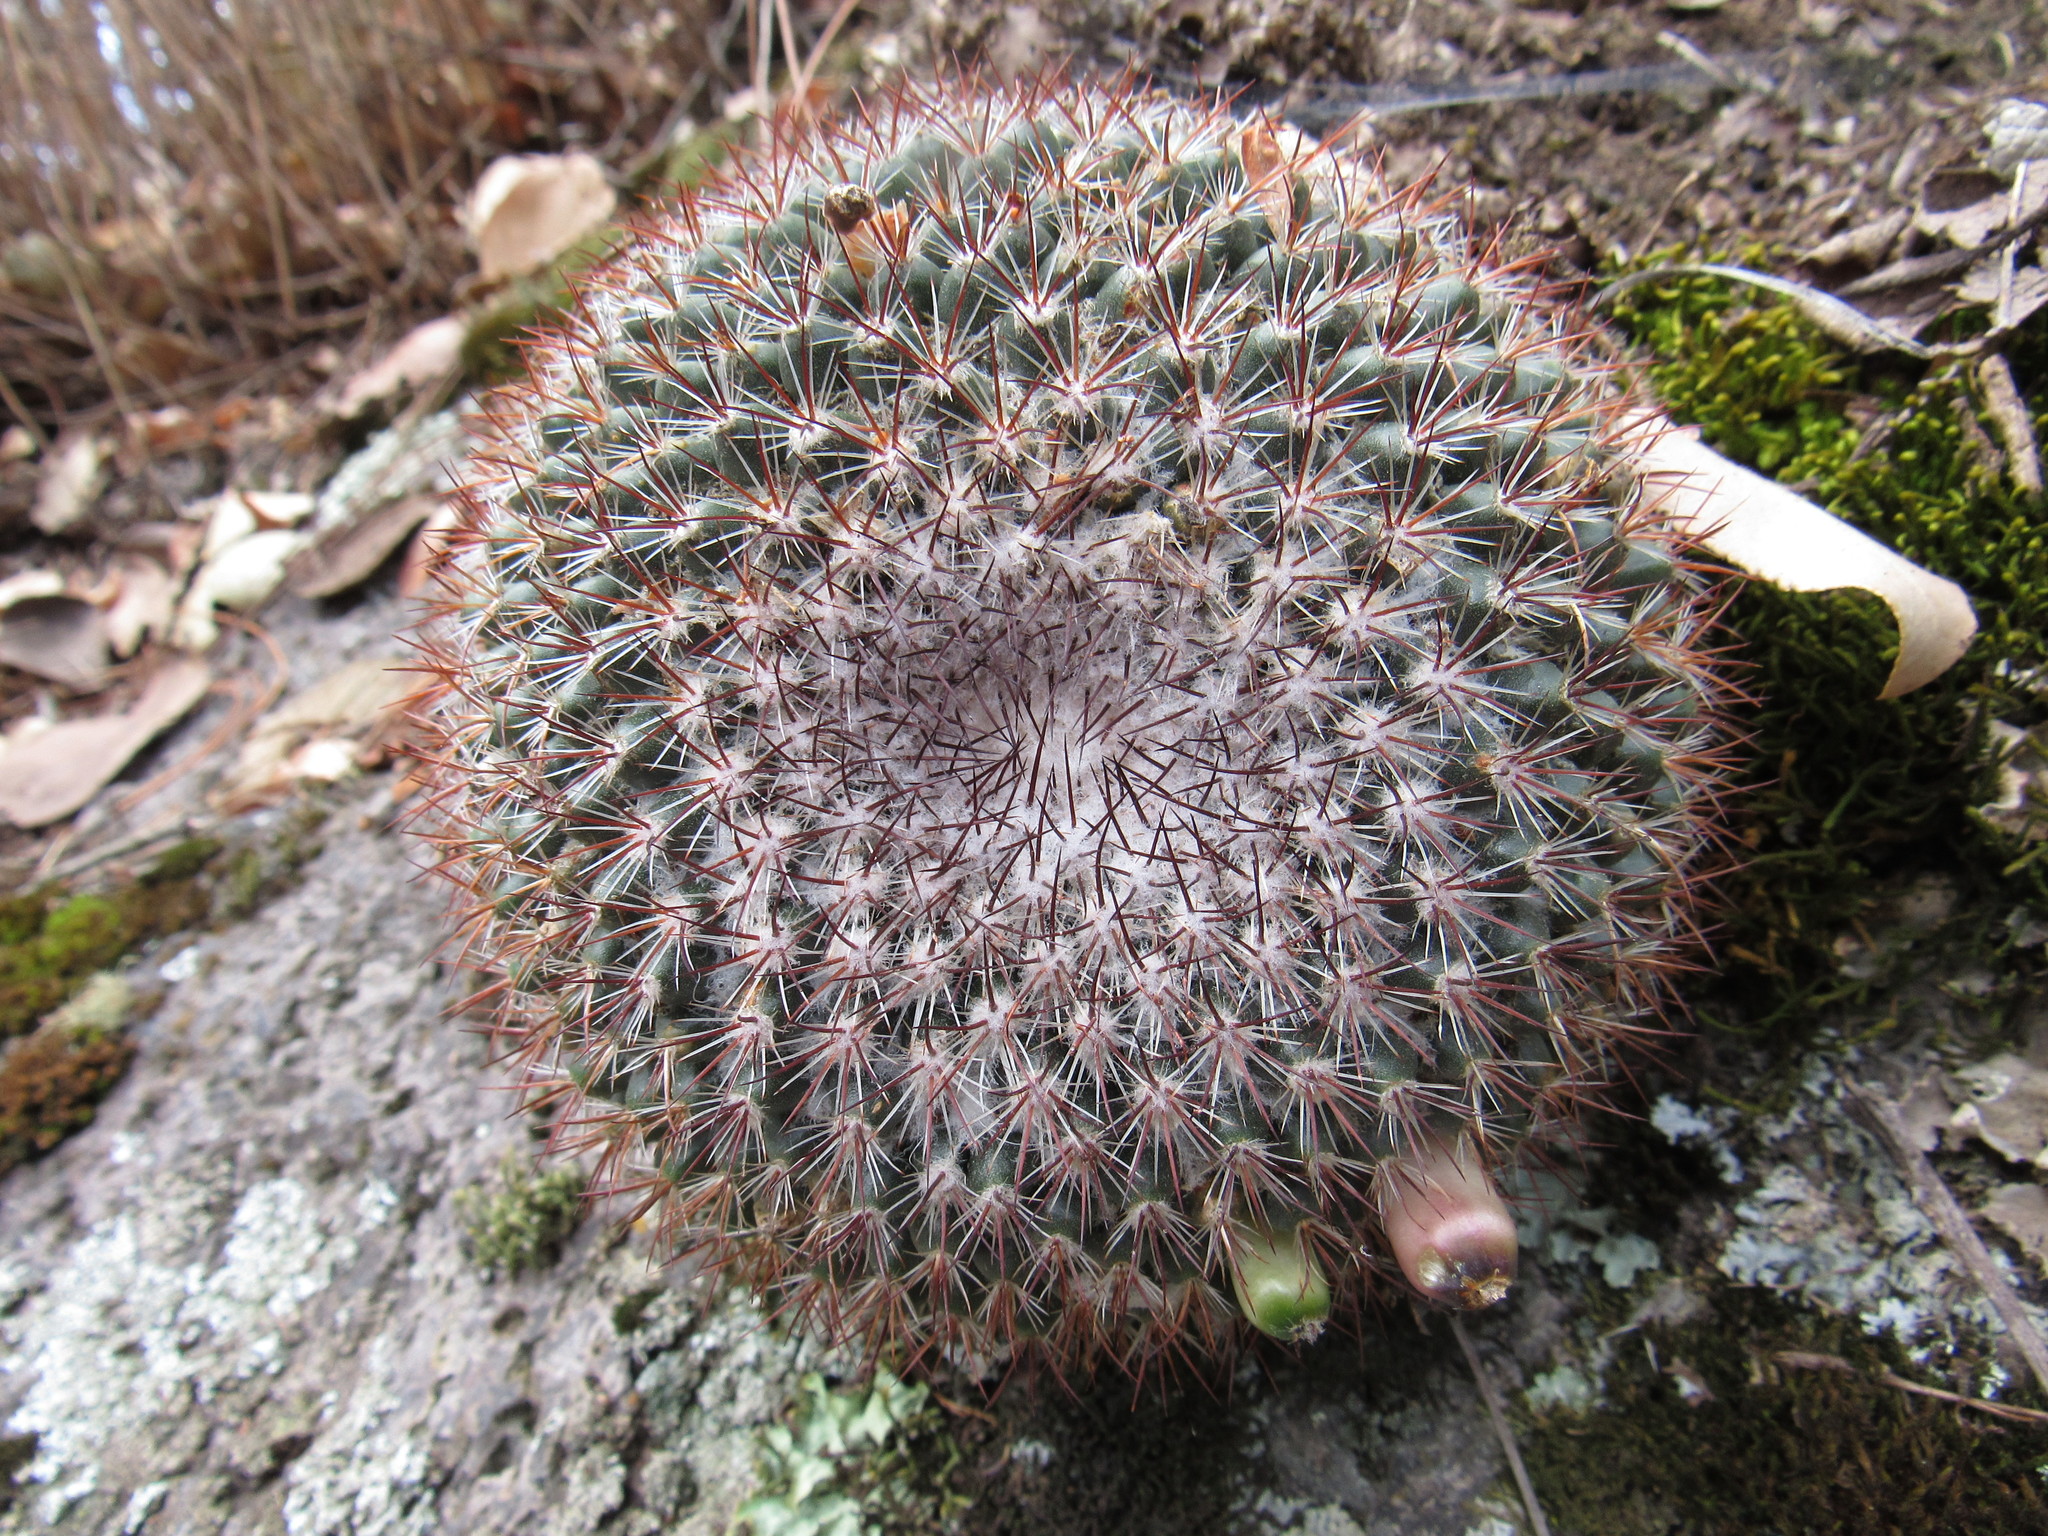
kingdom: Plantae
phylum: Tracheophyta
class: Magnoliopsida
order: Caryophyllales
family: Cactaceae
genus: Mammillaria
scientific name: Mammillaria rhodantha
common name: Rainbow pincushion
